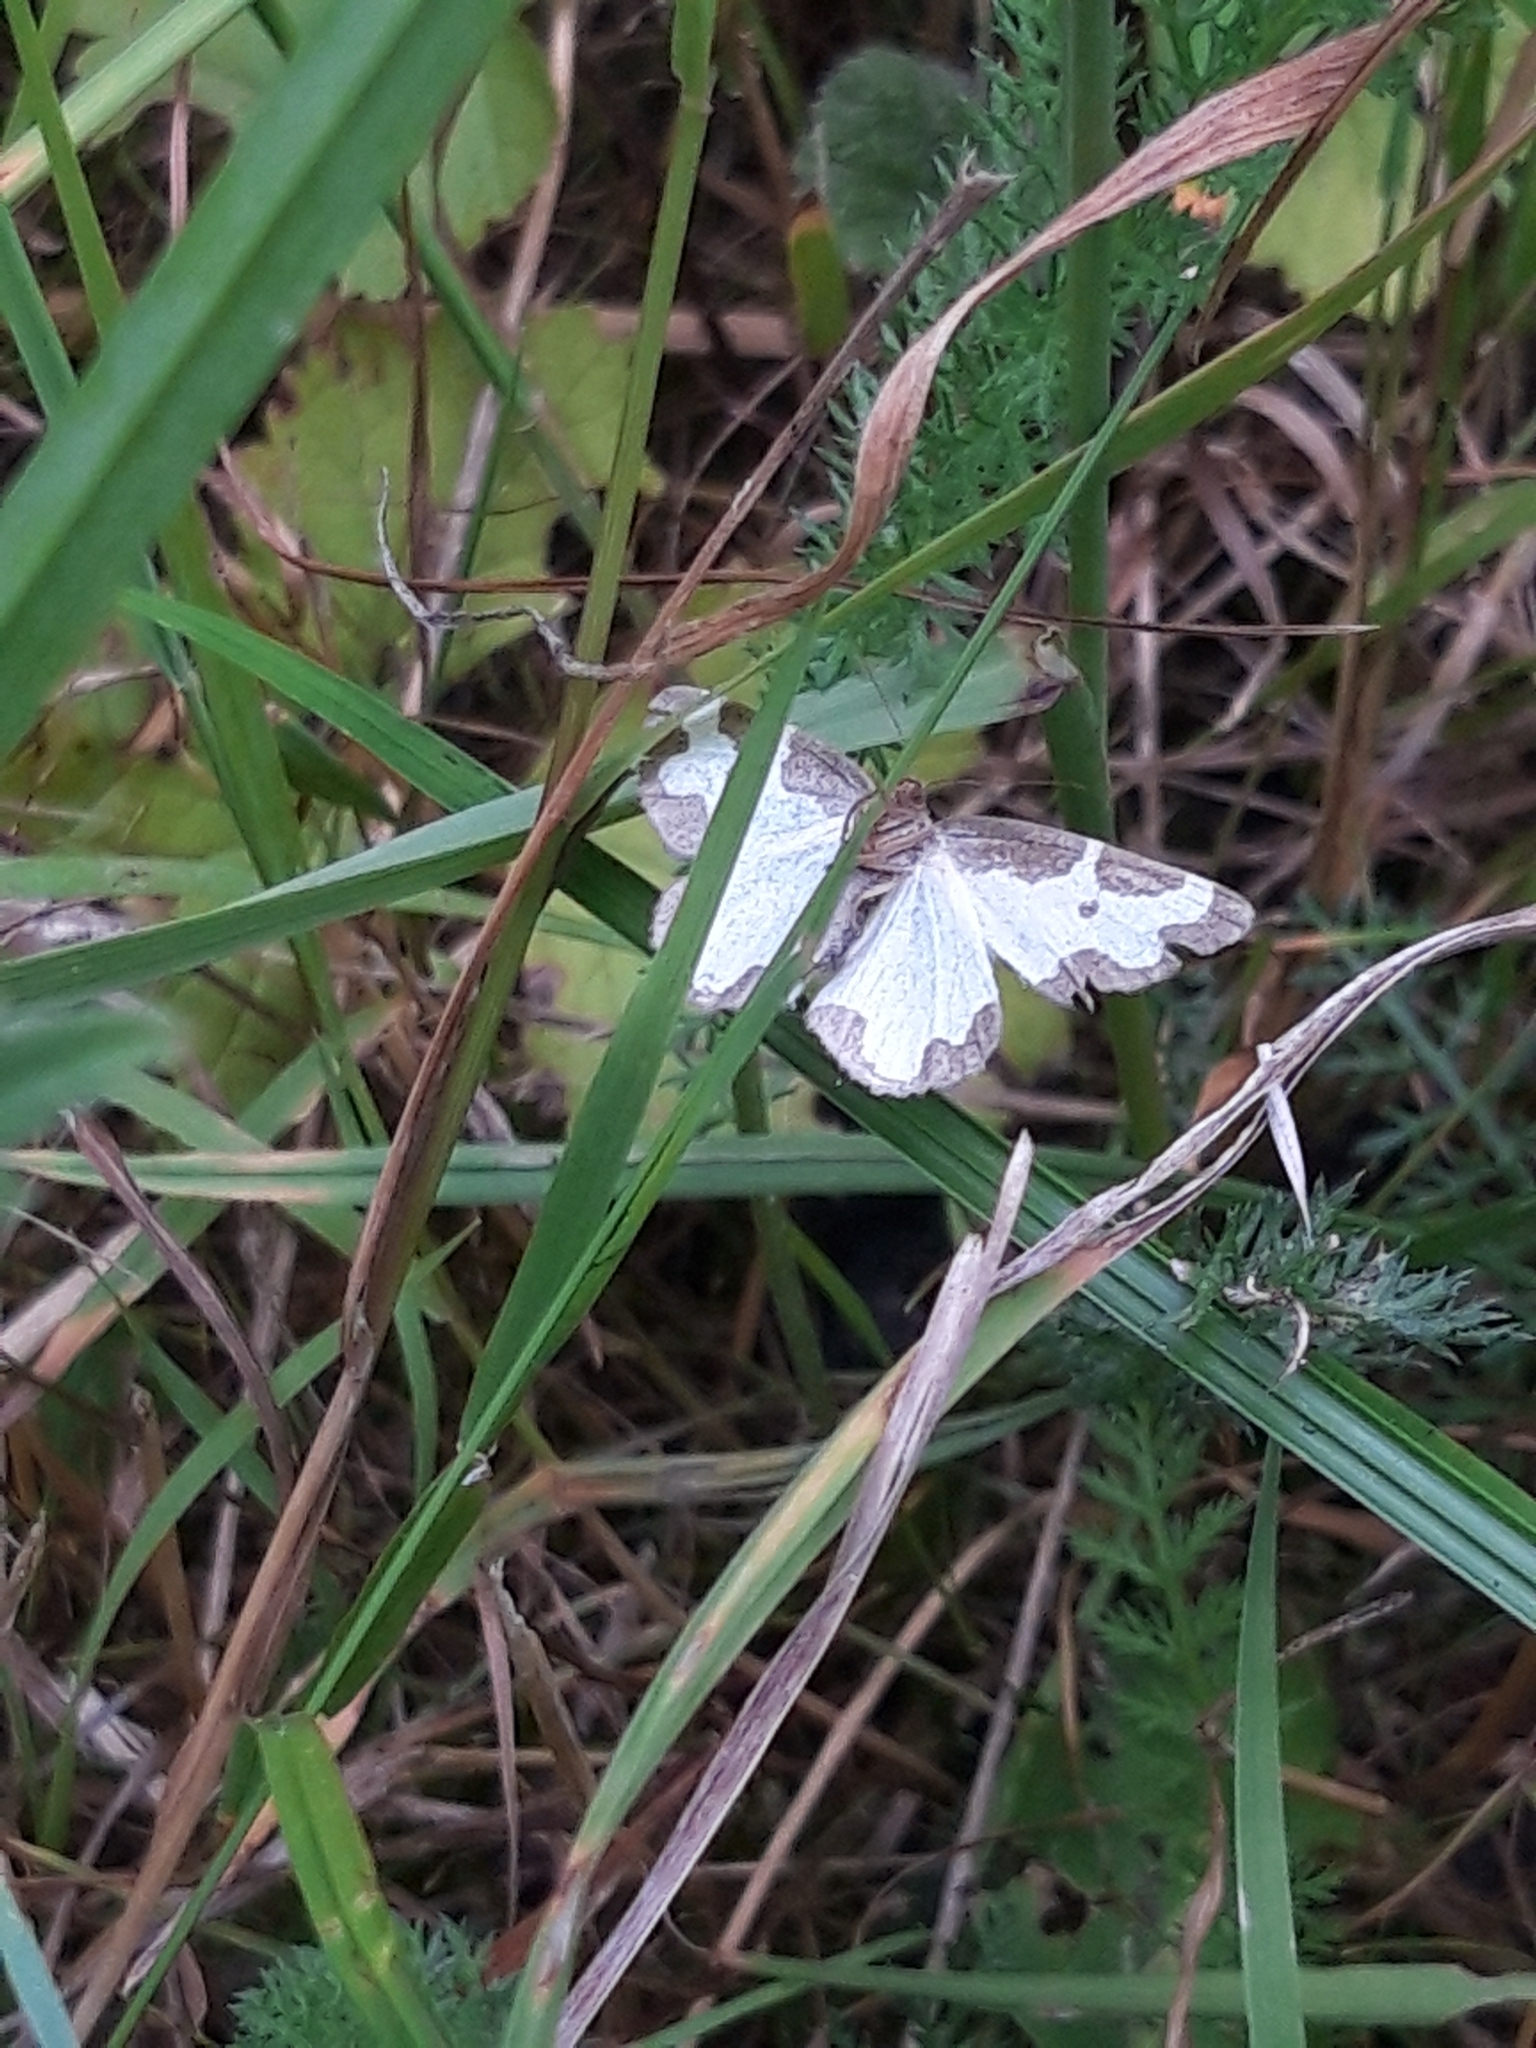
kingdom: Animalia
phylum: Arthropoda
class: Insecta
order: Lepidoptera
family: Geometridae
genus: Lomaspilis
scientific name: Lomaspilis marginata
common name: Clouded border
